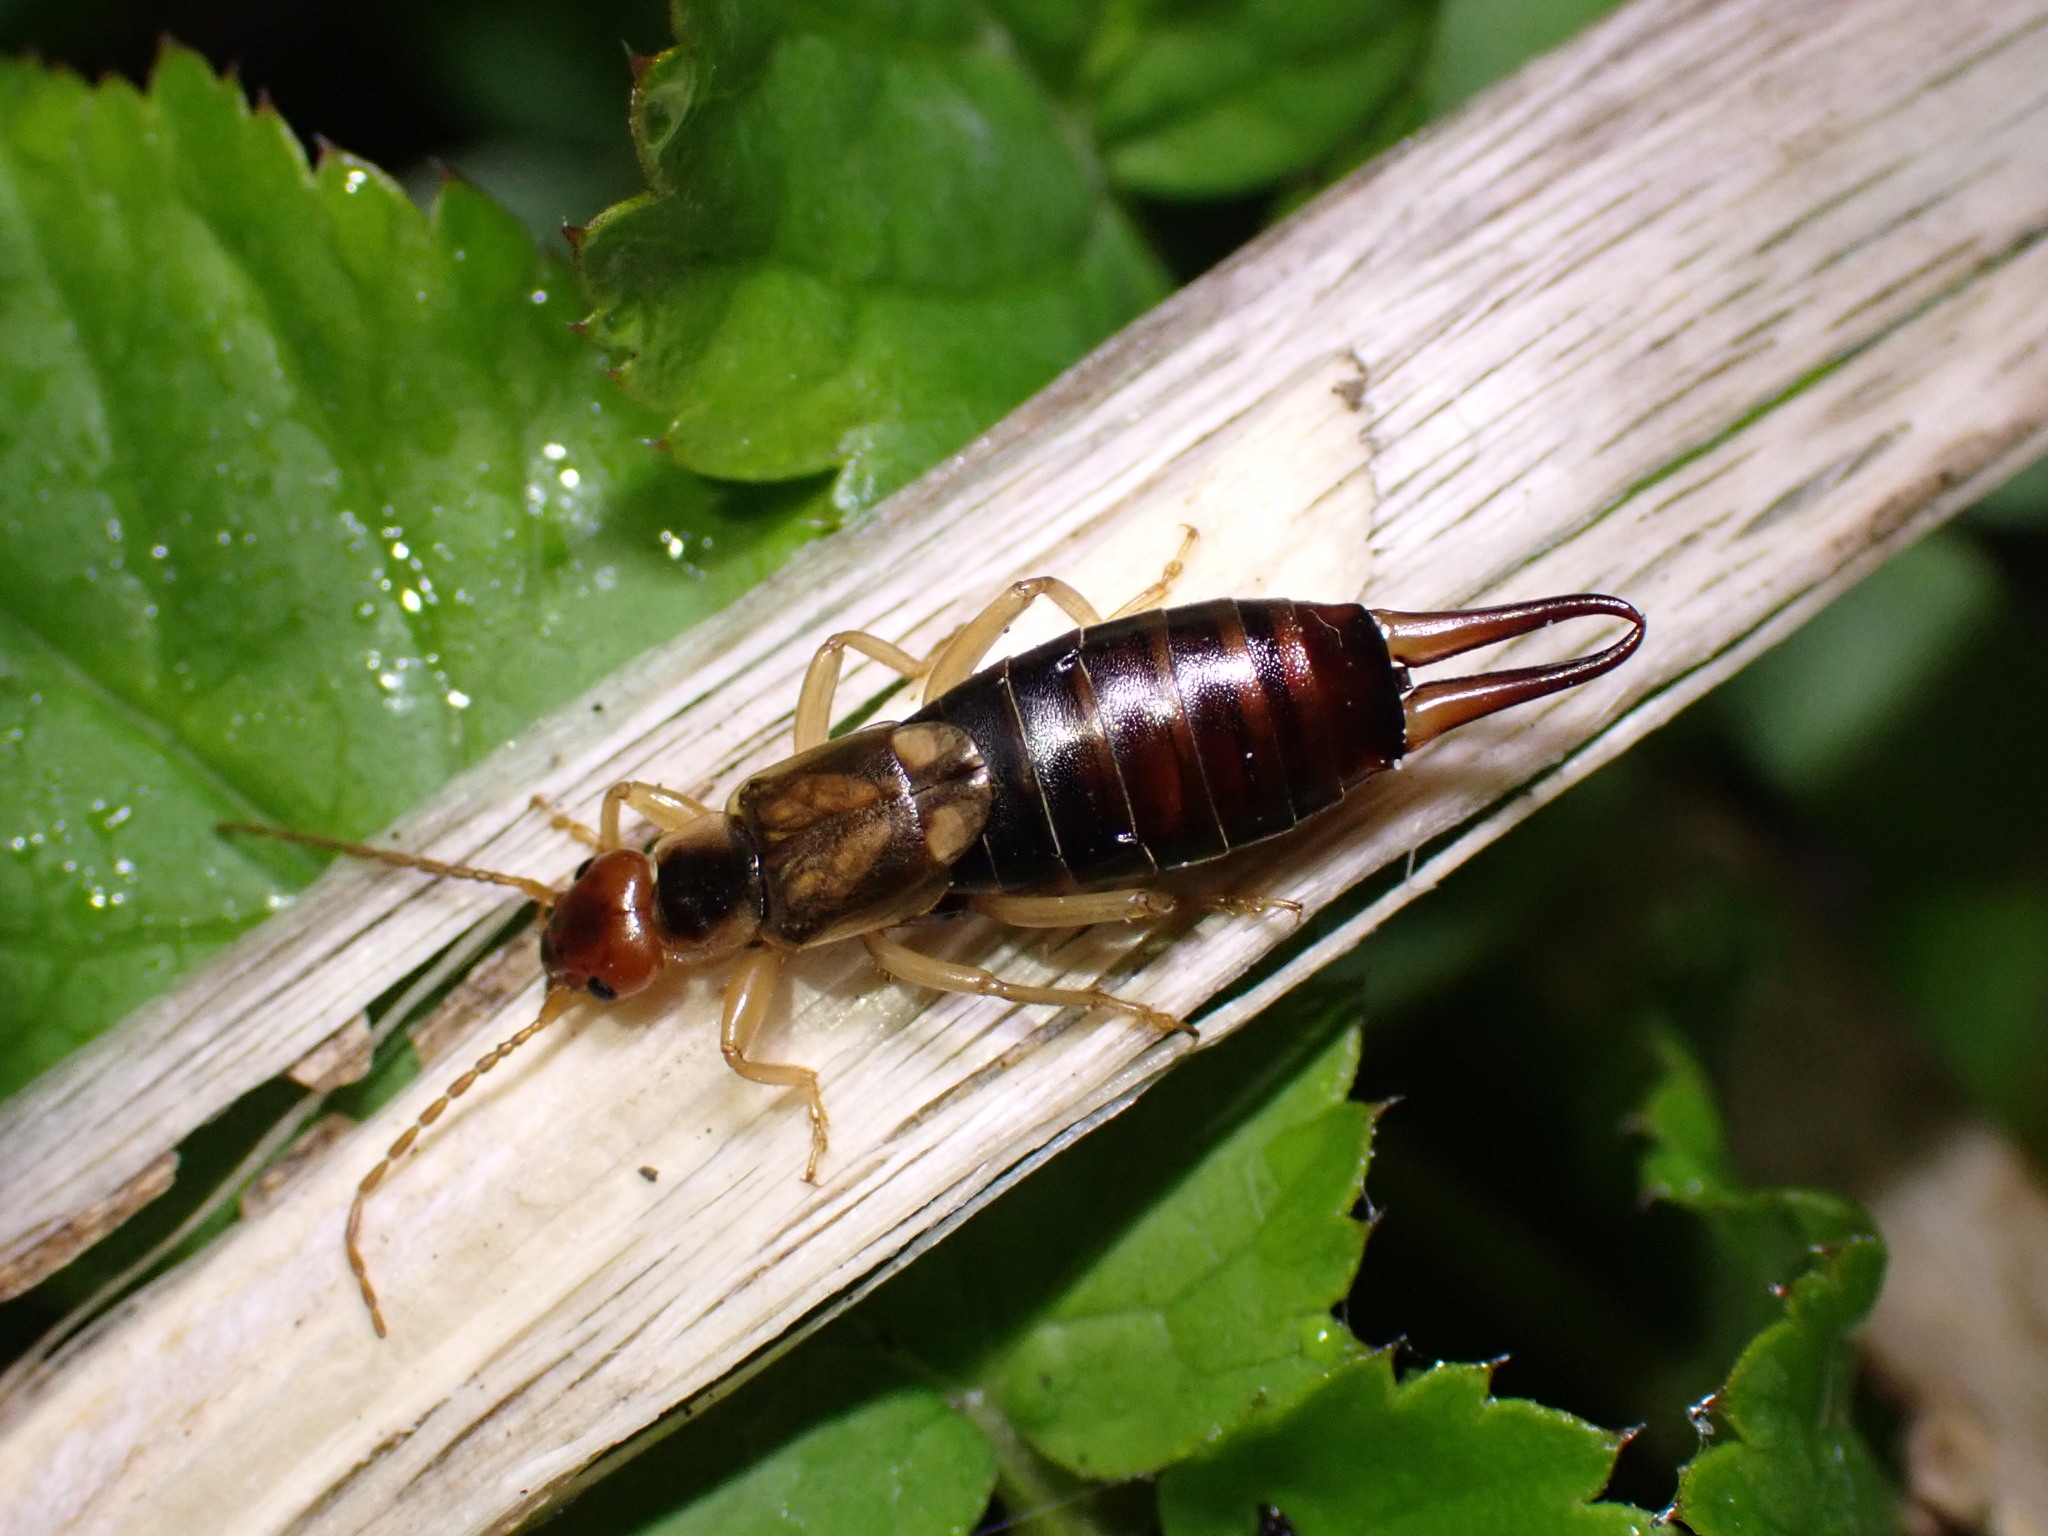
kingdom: Animalia
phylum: Arthropoda
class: Insecta
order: Dermaptera
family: Forficulidae
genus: Forficula
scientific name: Forficula
